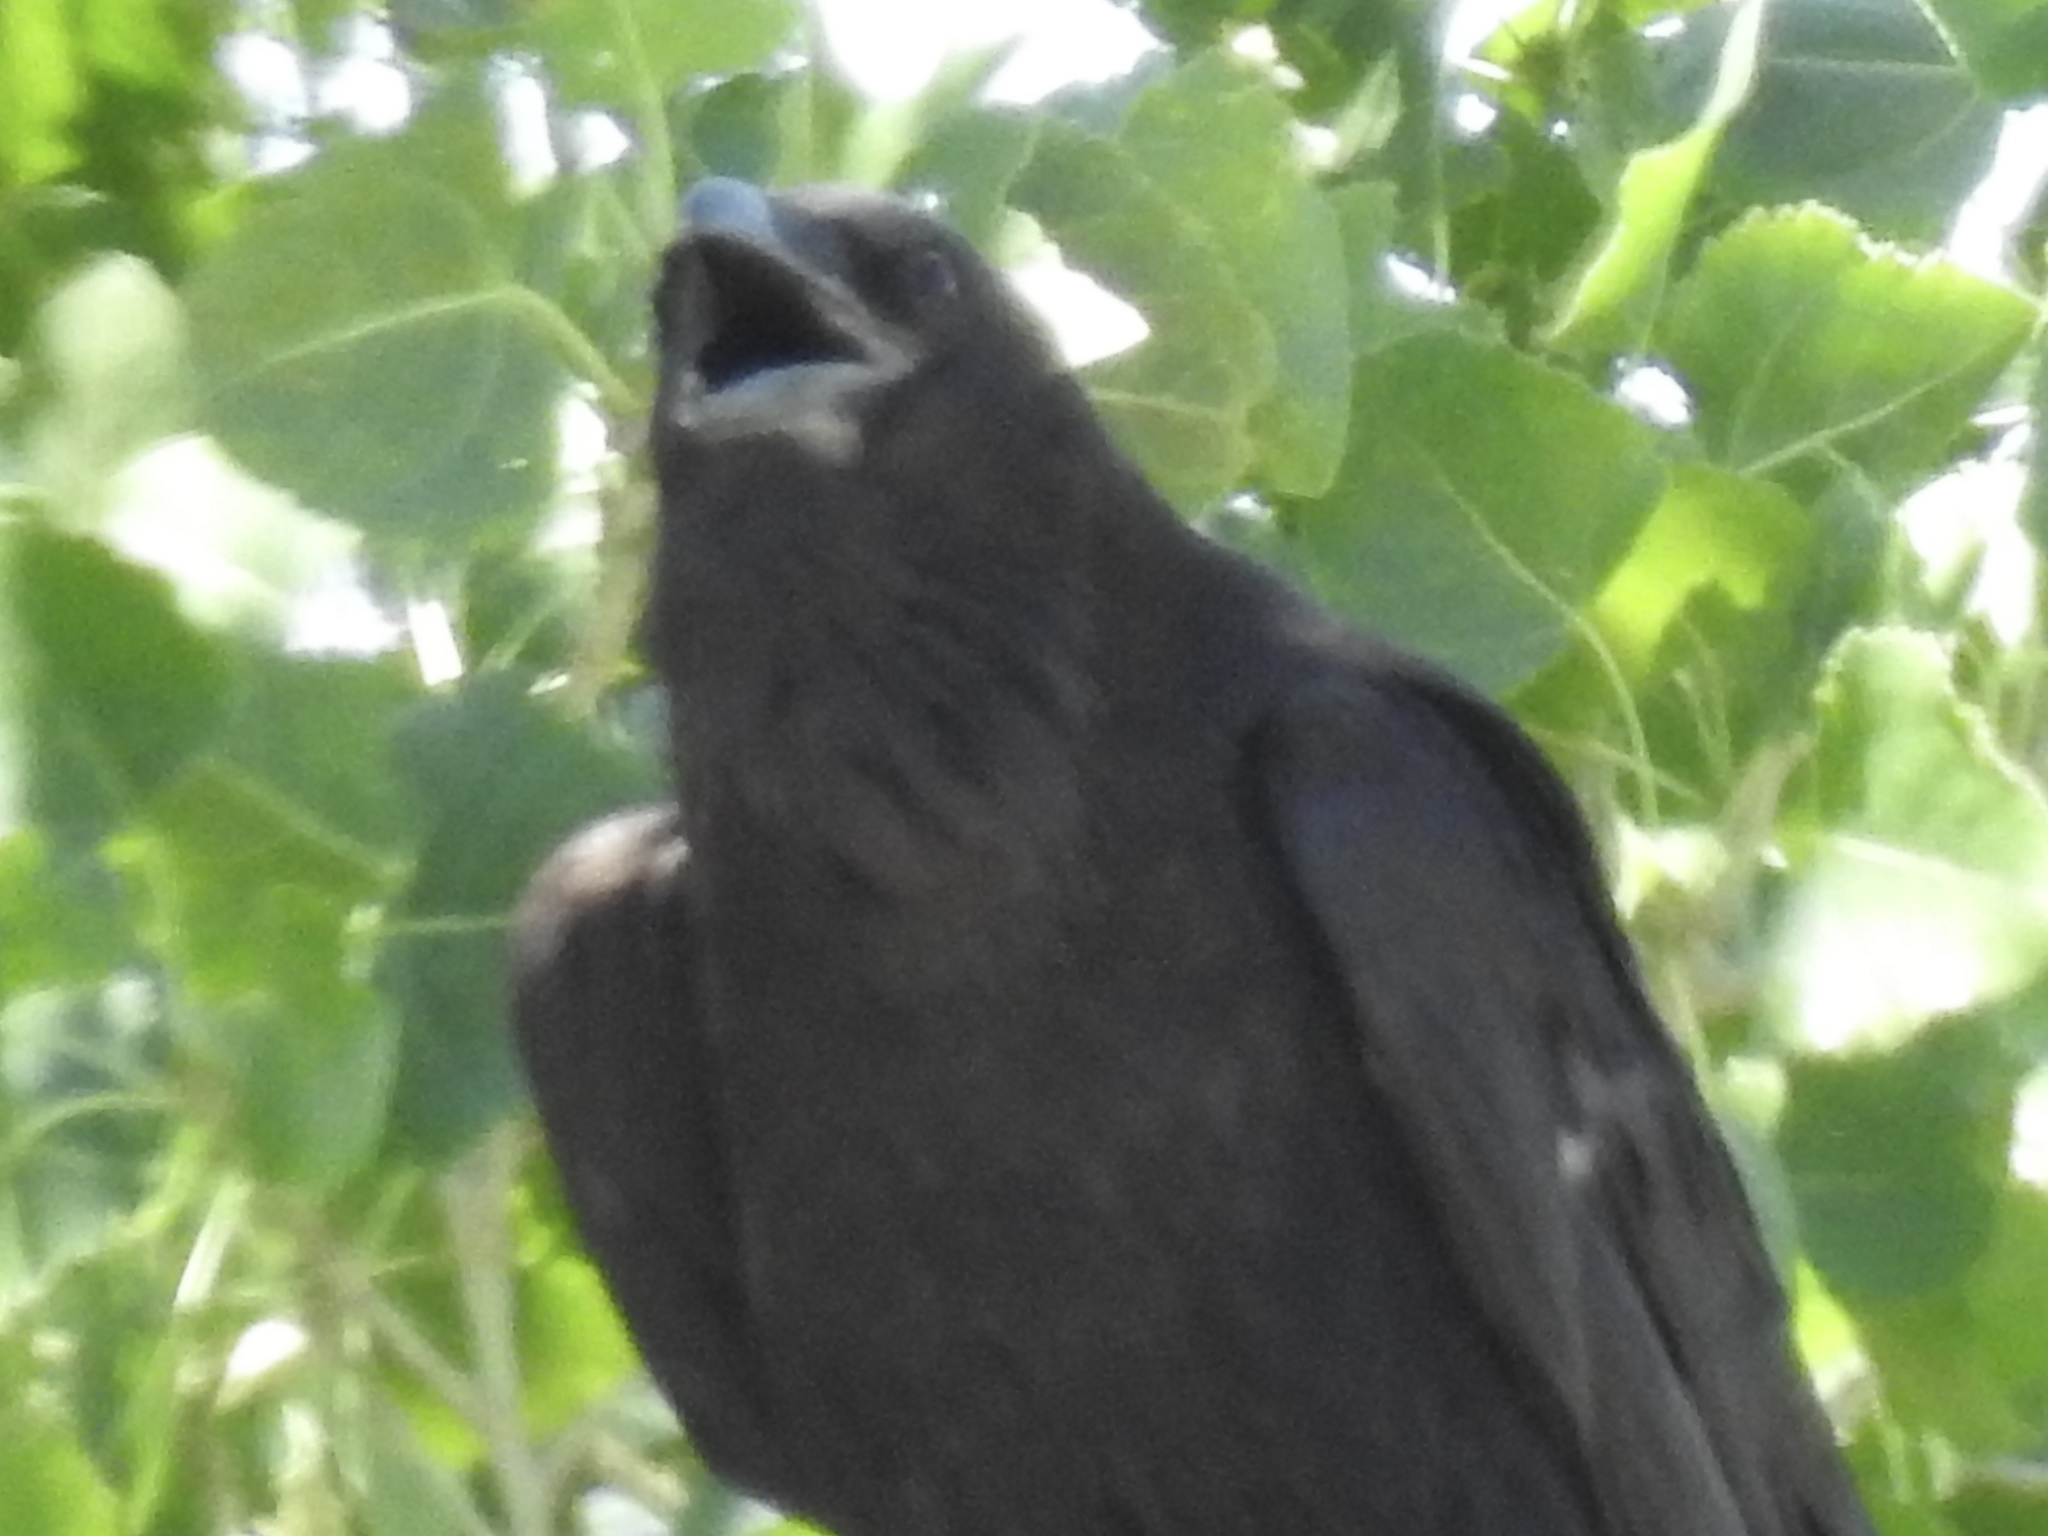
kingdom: Animalia
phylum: Chordata
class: Aves
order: Passeriformes
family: Corvidae
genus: Corvus
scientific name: Corvus corax
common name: Common raven
